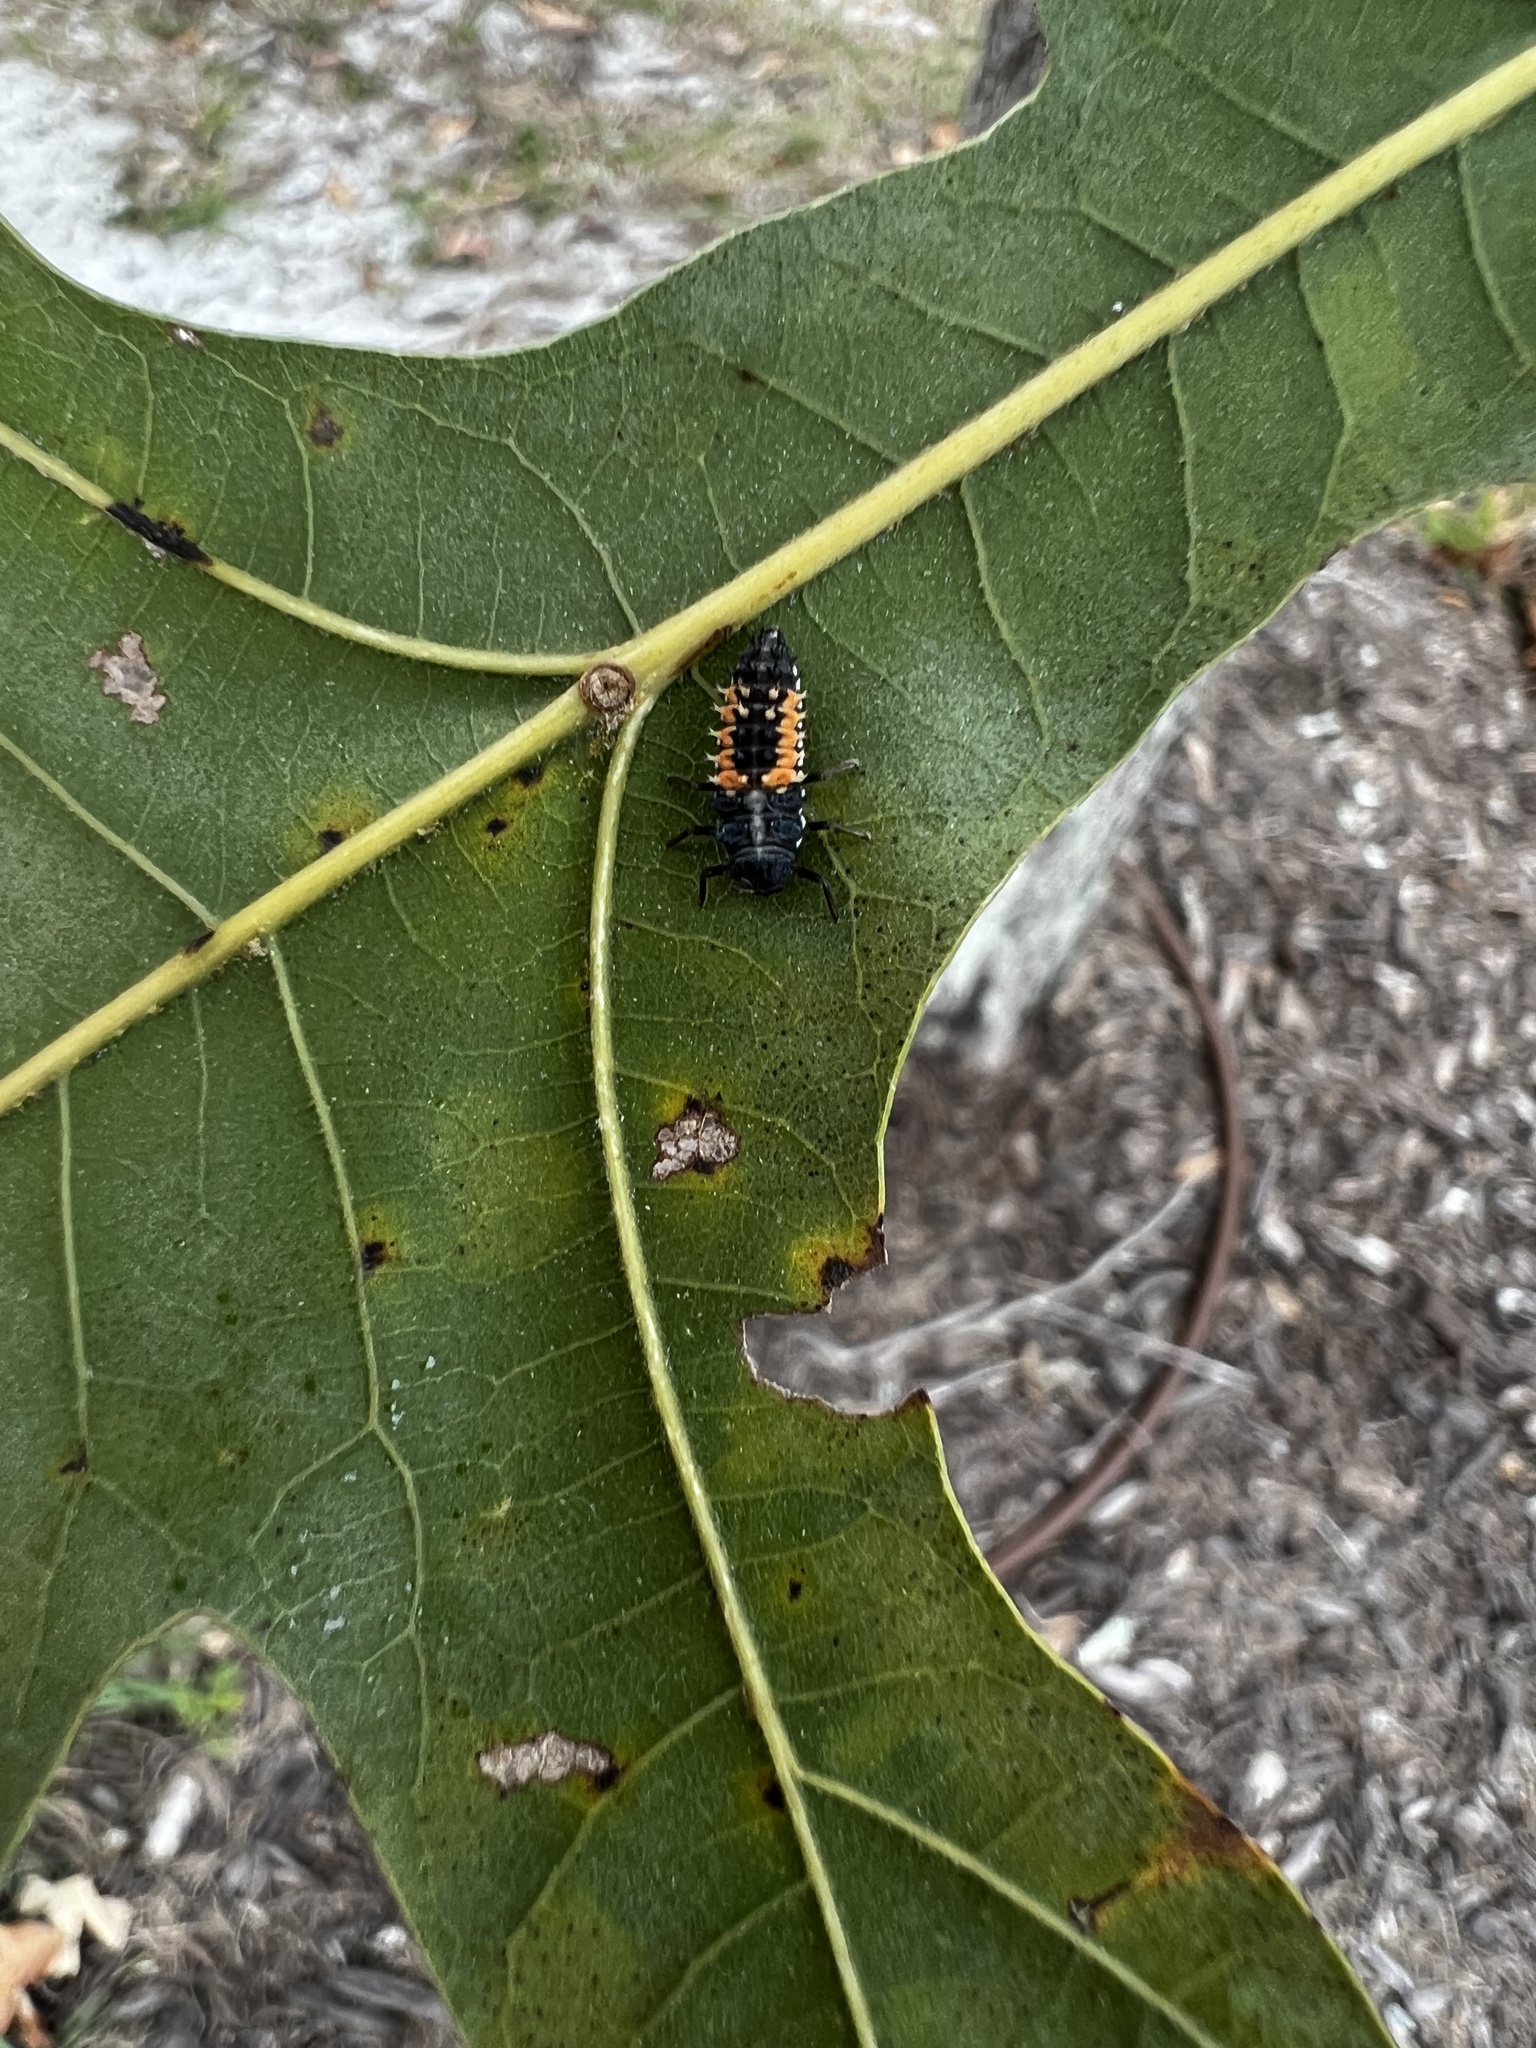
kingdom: Animalia
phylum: Arthropoda
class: Insecta
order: Coleoptera
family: Coccinellidae
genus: Harmonia
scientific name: Harmonia axyridis
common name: Harlequin ladybird
